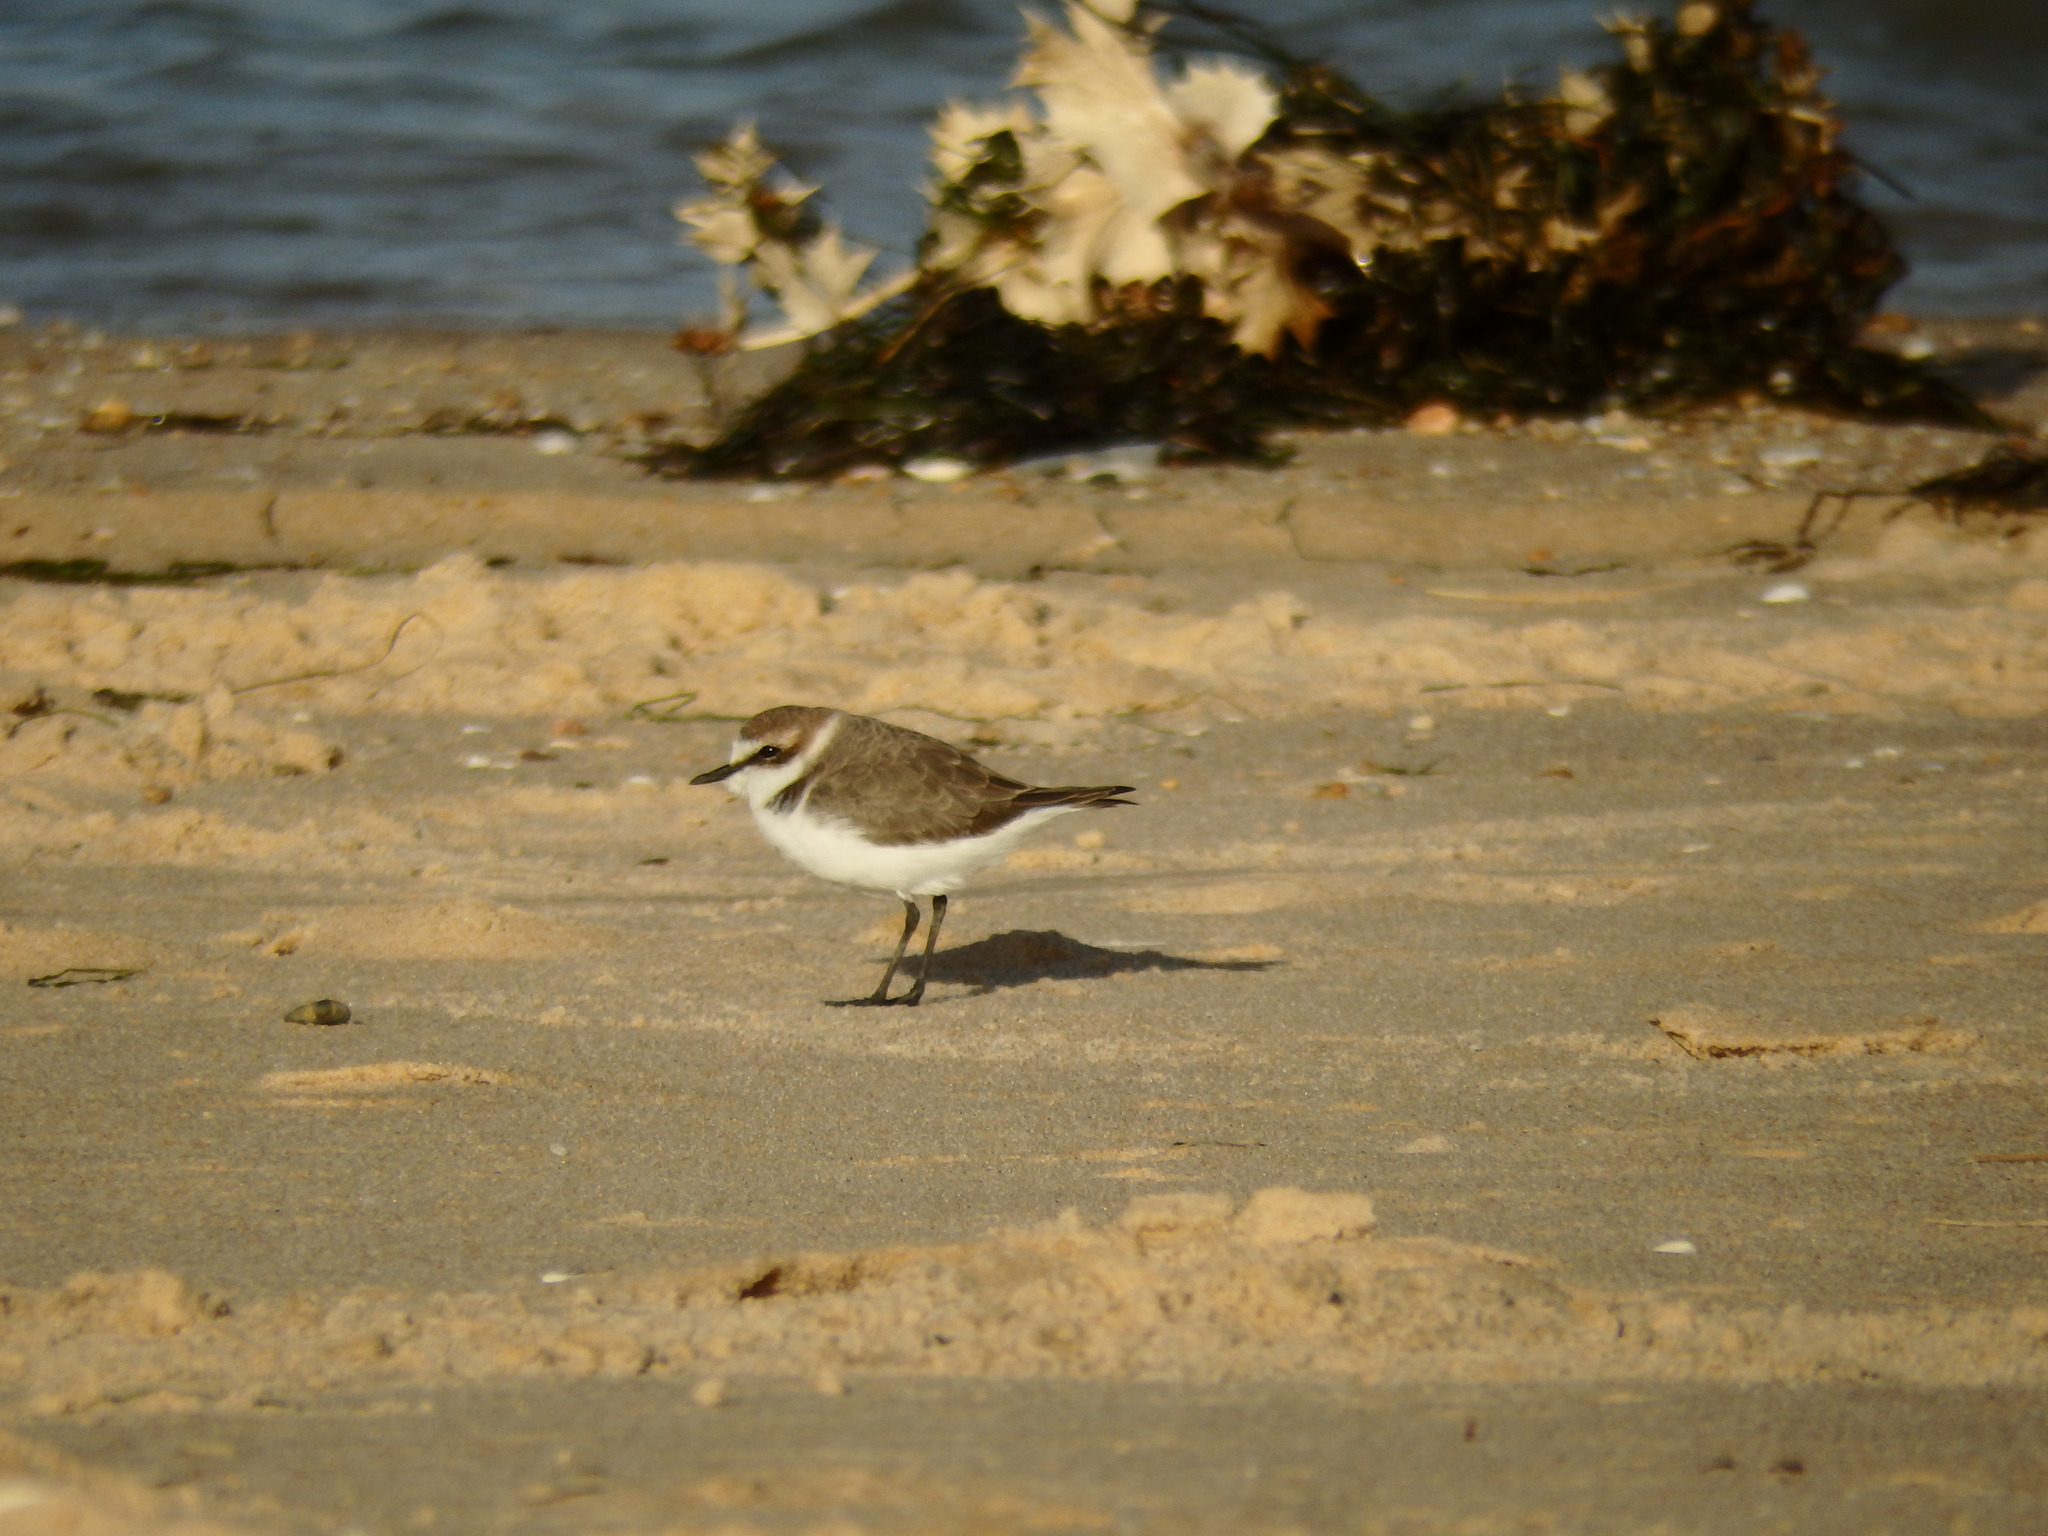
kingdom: Animalia
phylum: Chordata
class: Aves
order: Charadriiformes
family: Charadriidae
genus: Charadrius
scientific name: Charadrius alexandrinus
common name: Kentish plover
